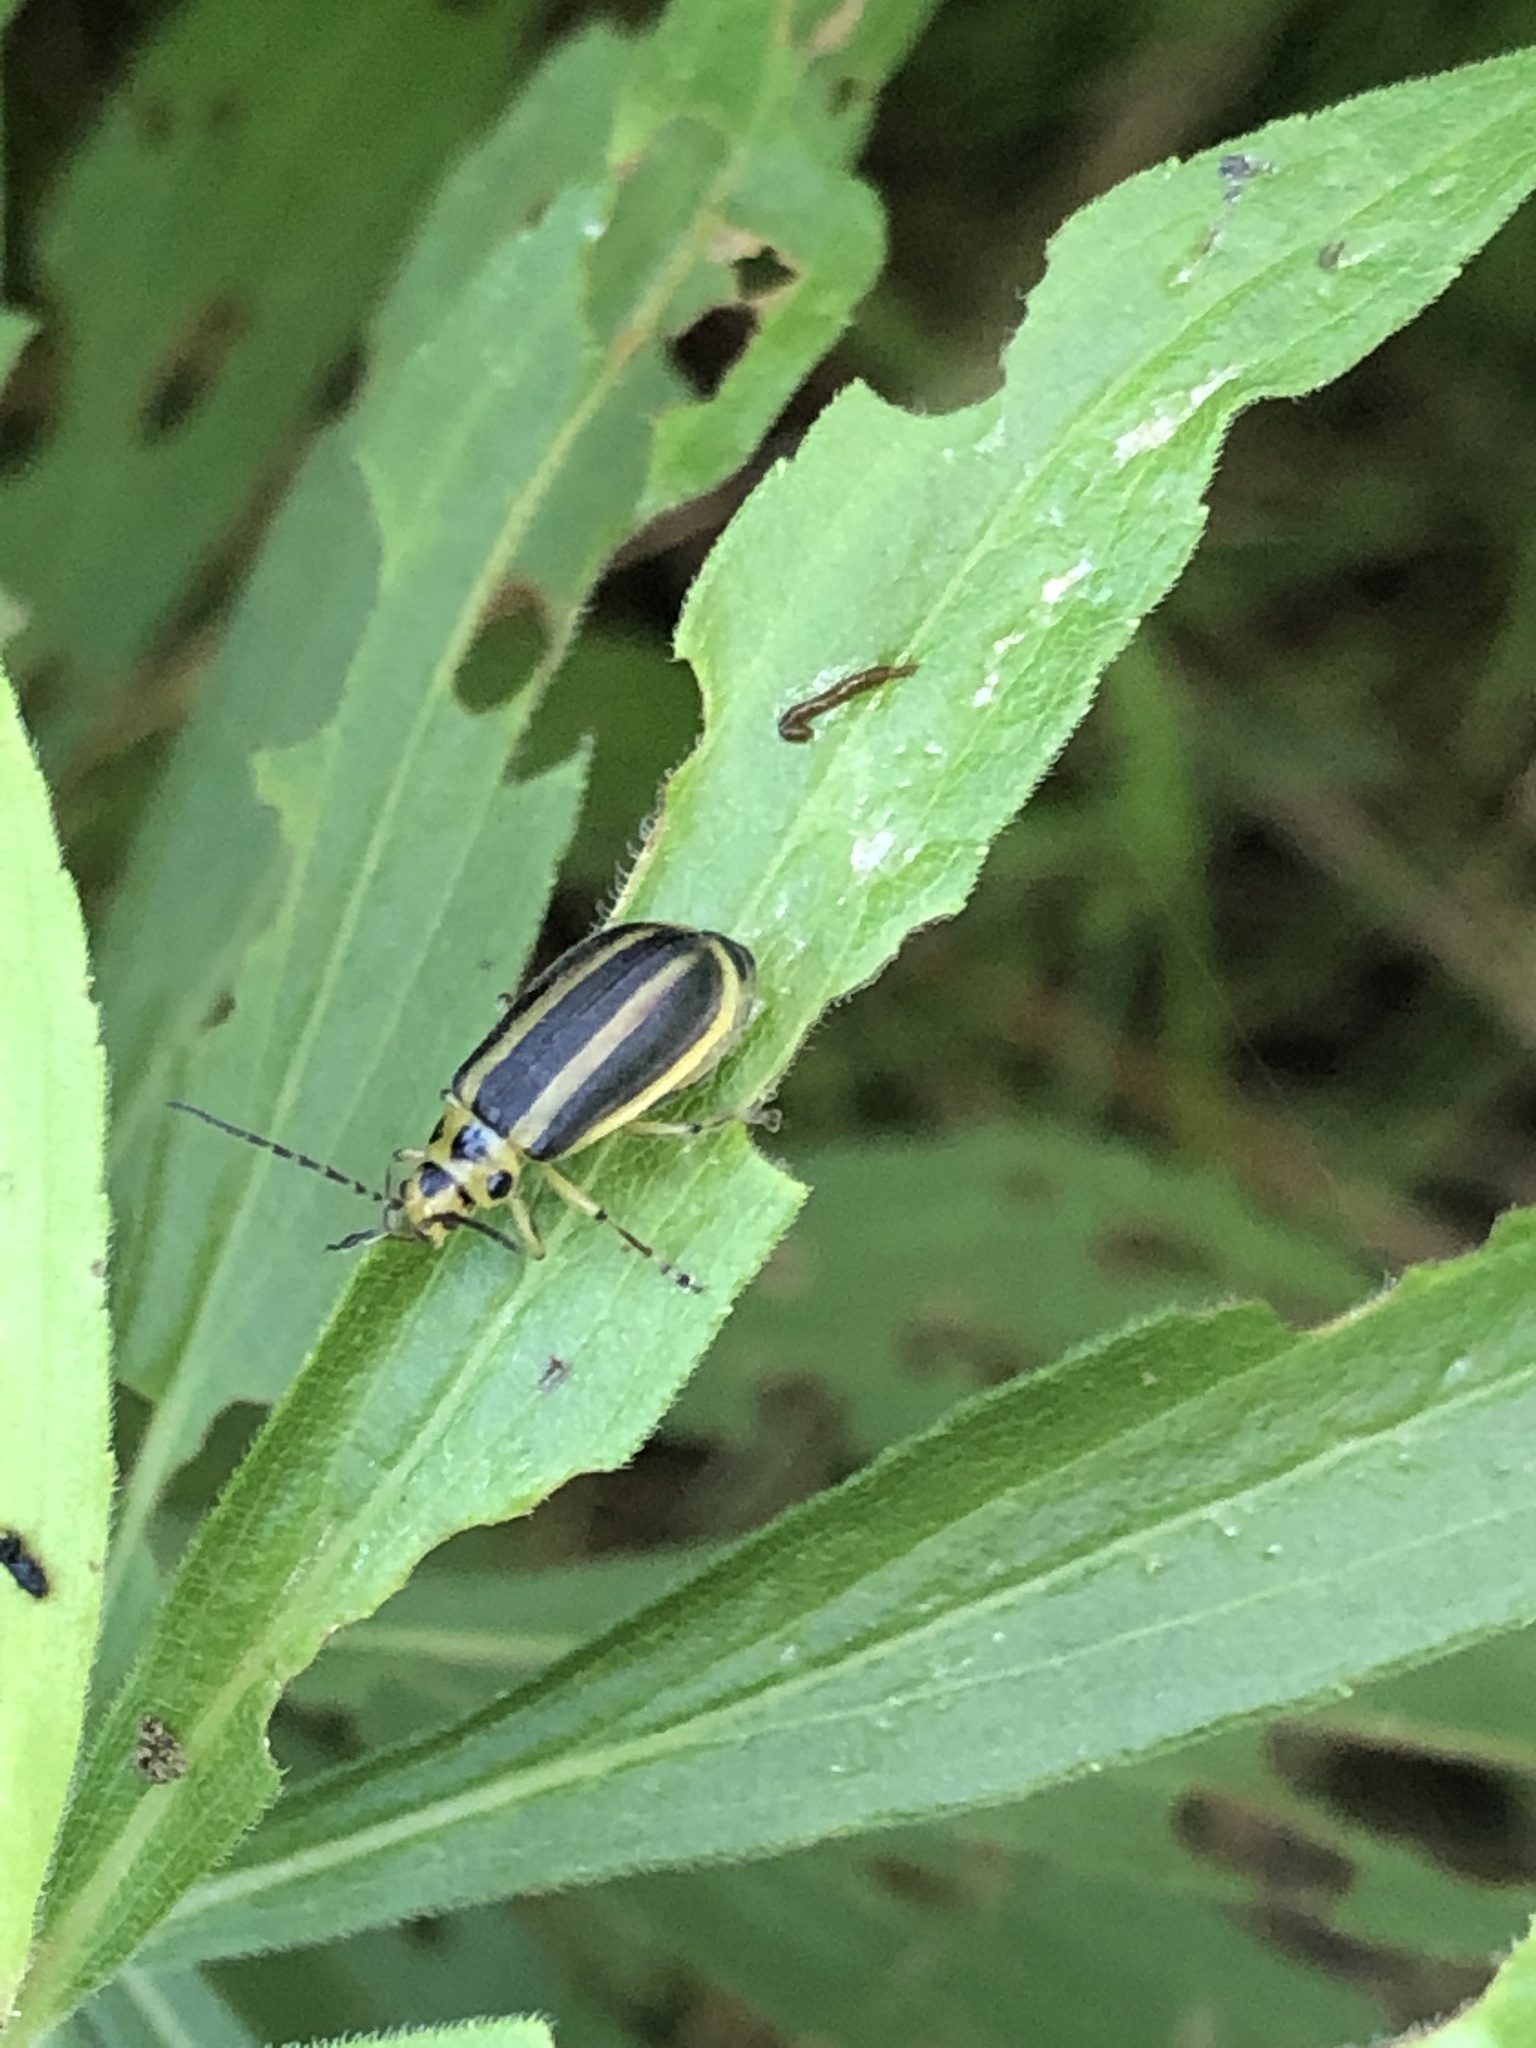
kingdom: Animalia
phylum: Arthropoda
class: Insecta
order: Coleoptera
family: Chrysomelidae
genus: Trirhabda
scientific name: Trirhabda canadensis
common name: Goldenrod leaf beetle
